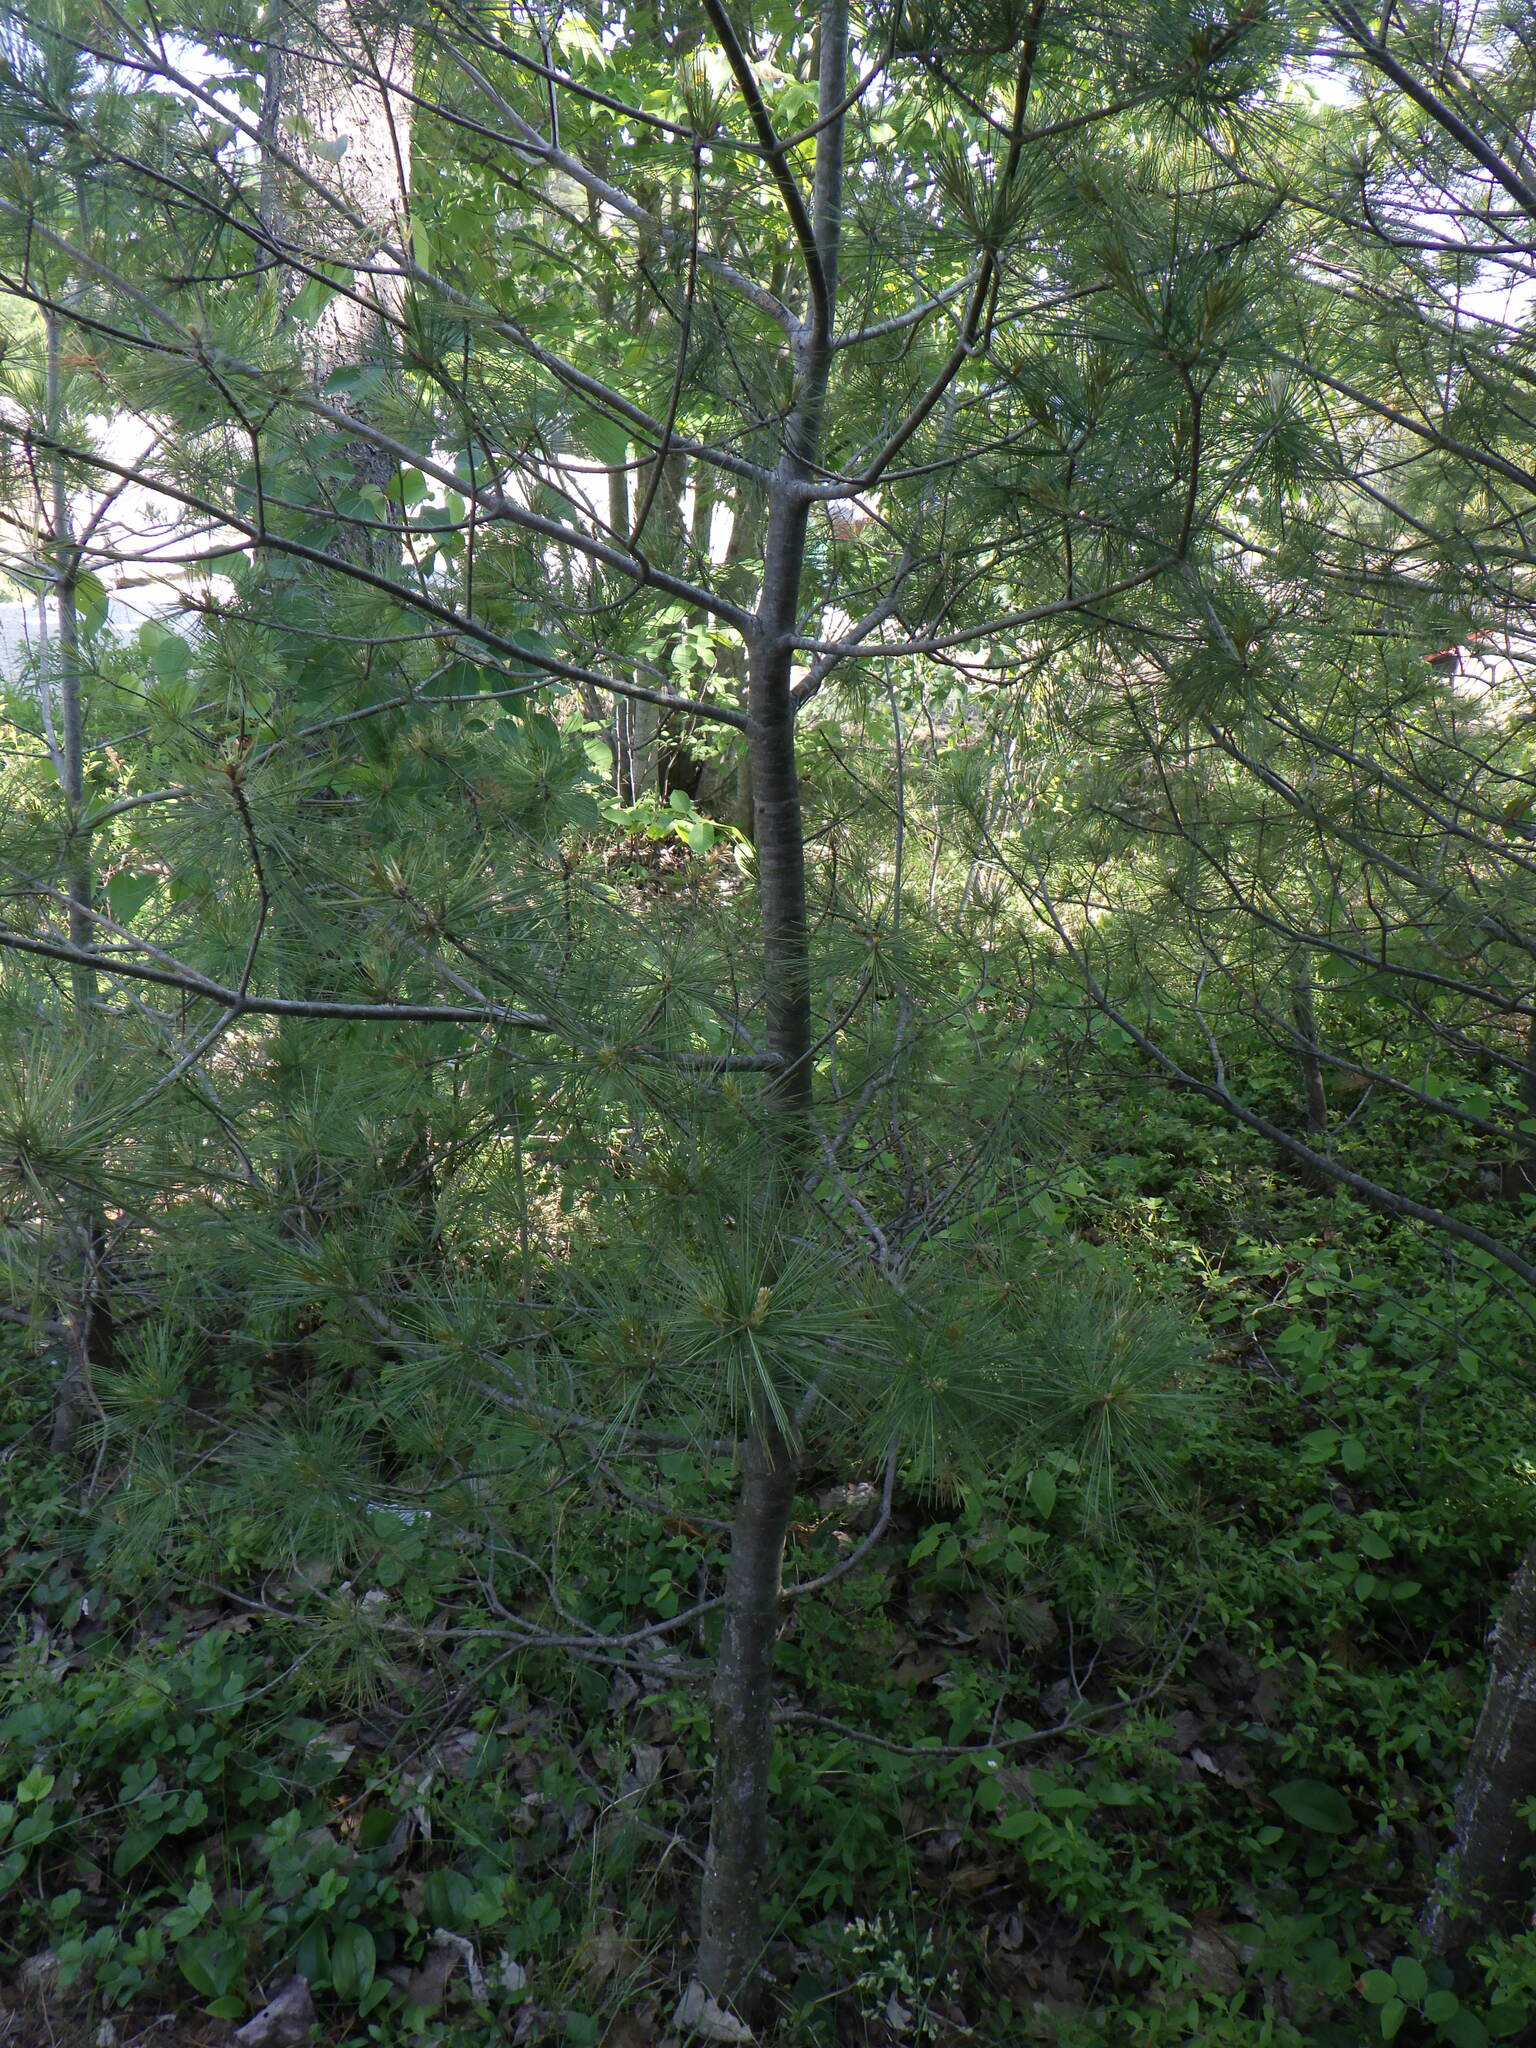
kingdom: Plantae
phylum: Tracheophyta
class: Pinopsida
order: Pinales
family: Pinaceae
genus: Pinus
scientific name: Pinus strobus
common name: Weymouth pine
